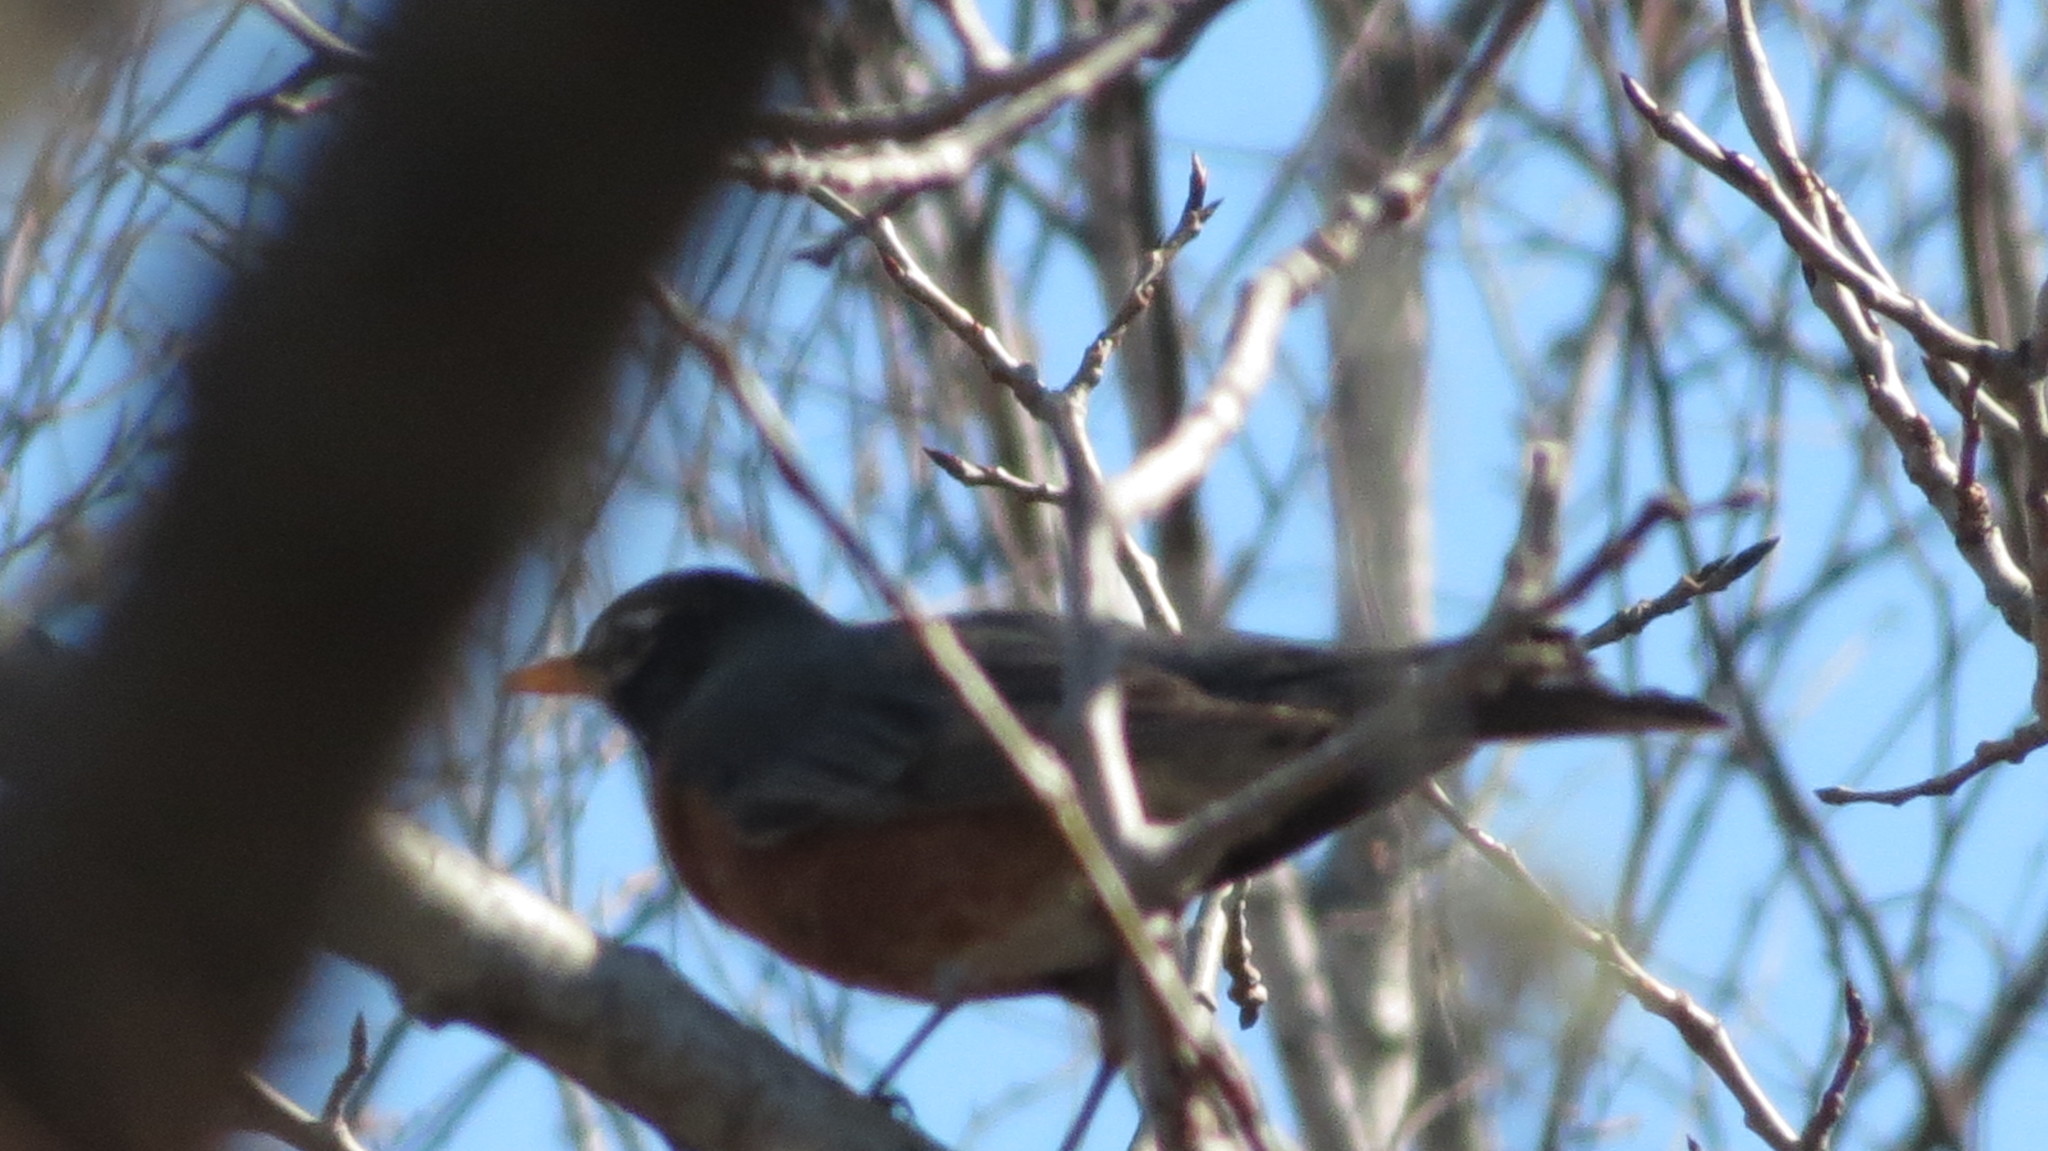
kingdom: Animalia
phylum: Chordata
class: Aves
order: Passeriformes
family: Turdidae
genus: Turdus
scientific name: Turdus migratorius
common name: American robin
